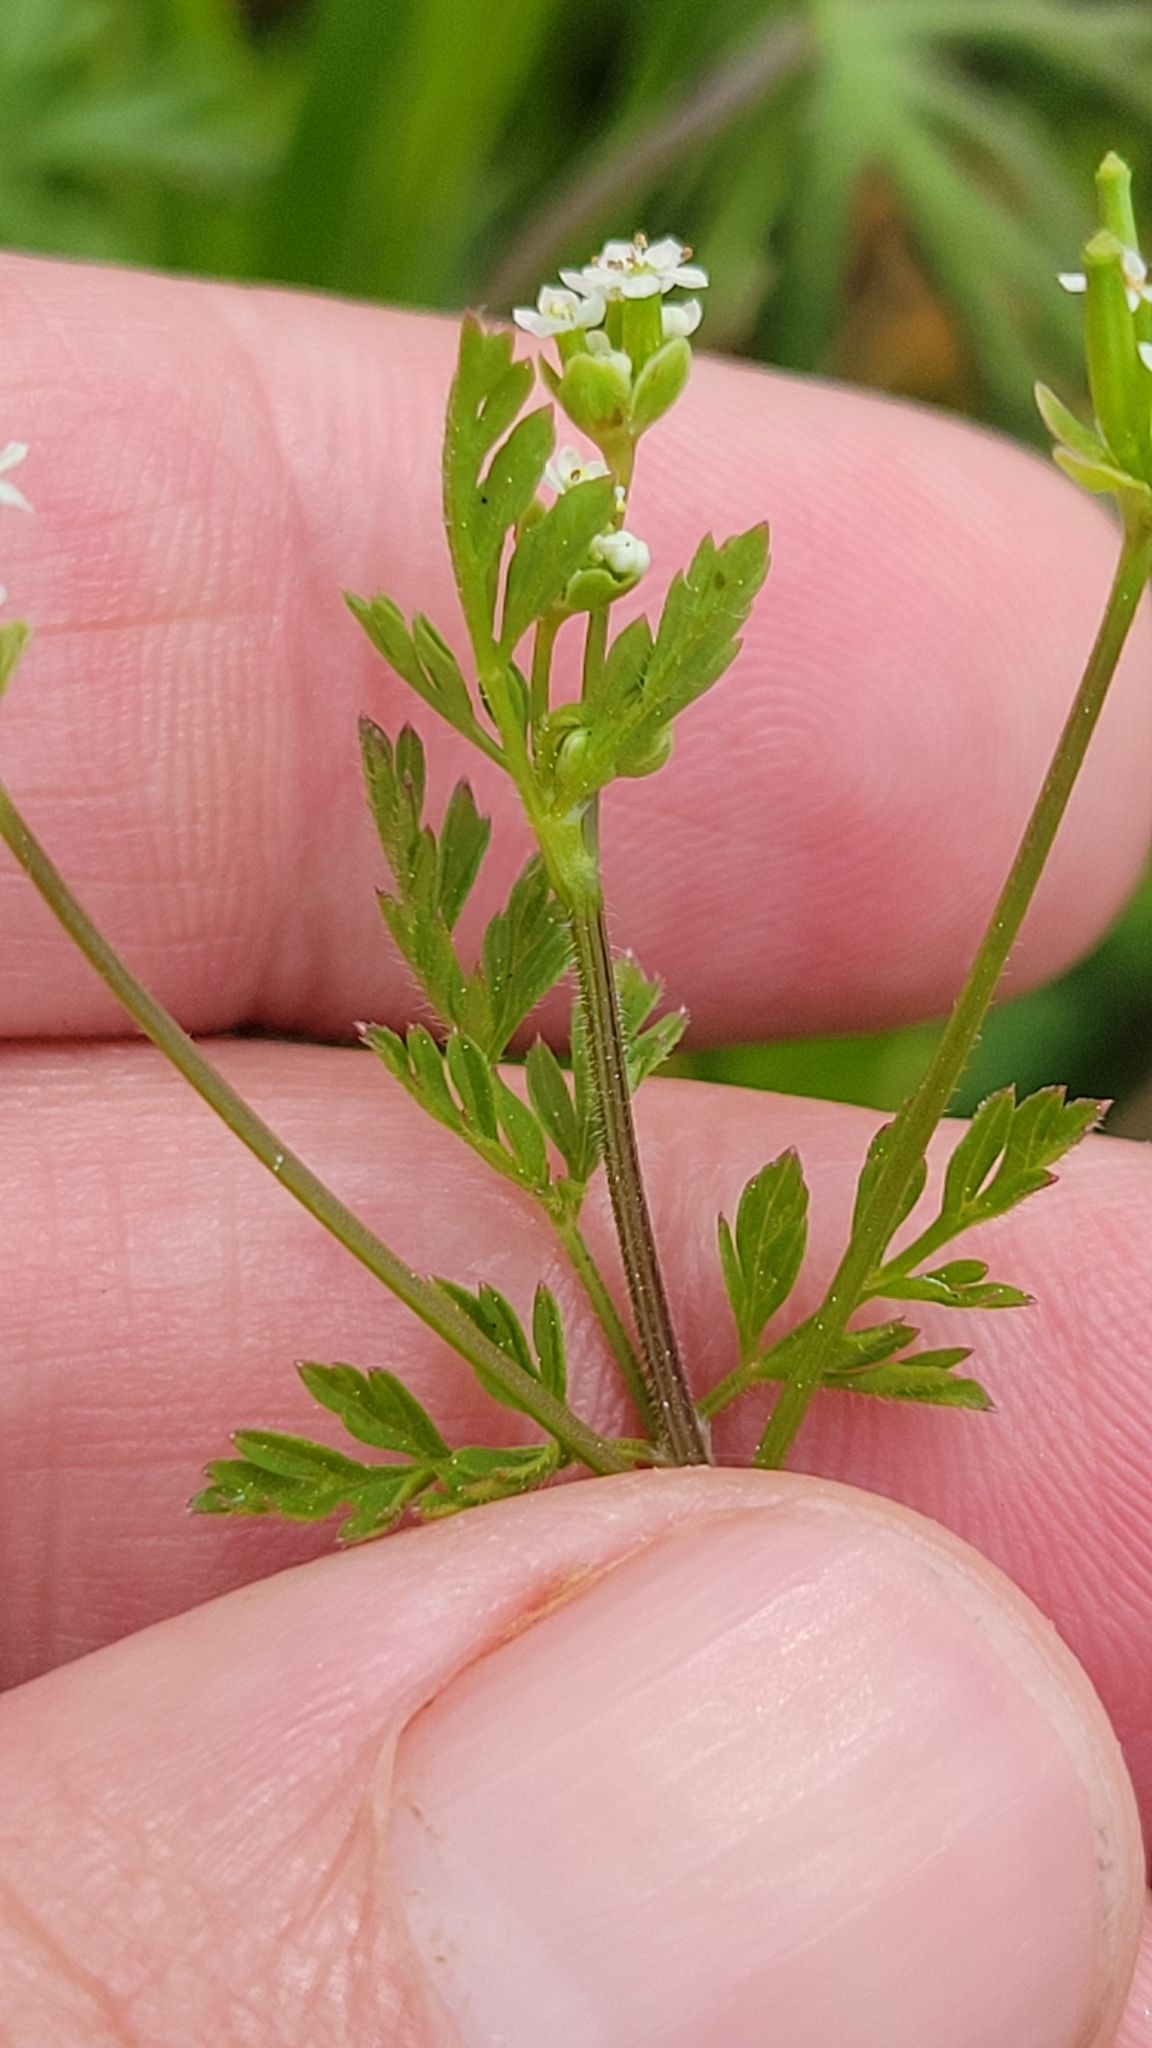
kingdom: Plantae
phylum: Tracheophyta
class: Magnoliopsida
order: Apiales
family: Apiaceae
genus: Chaerophyllum
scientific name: Chaerophyllum tainturieri
